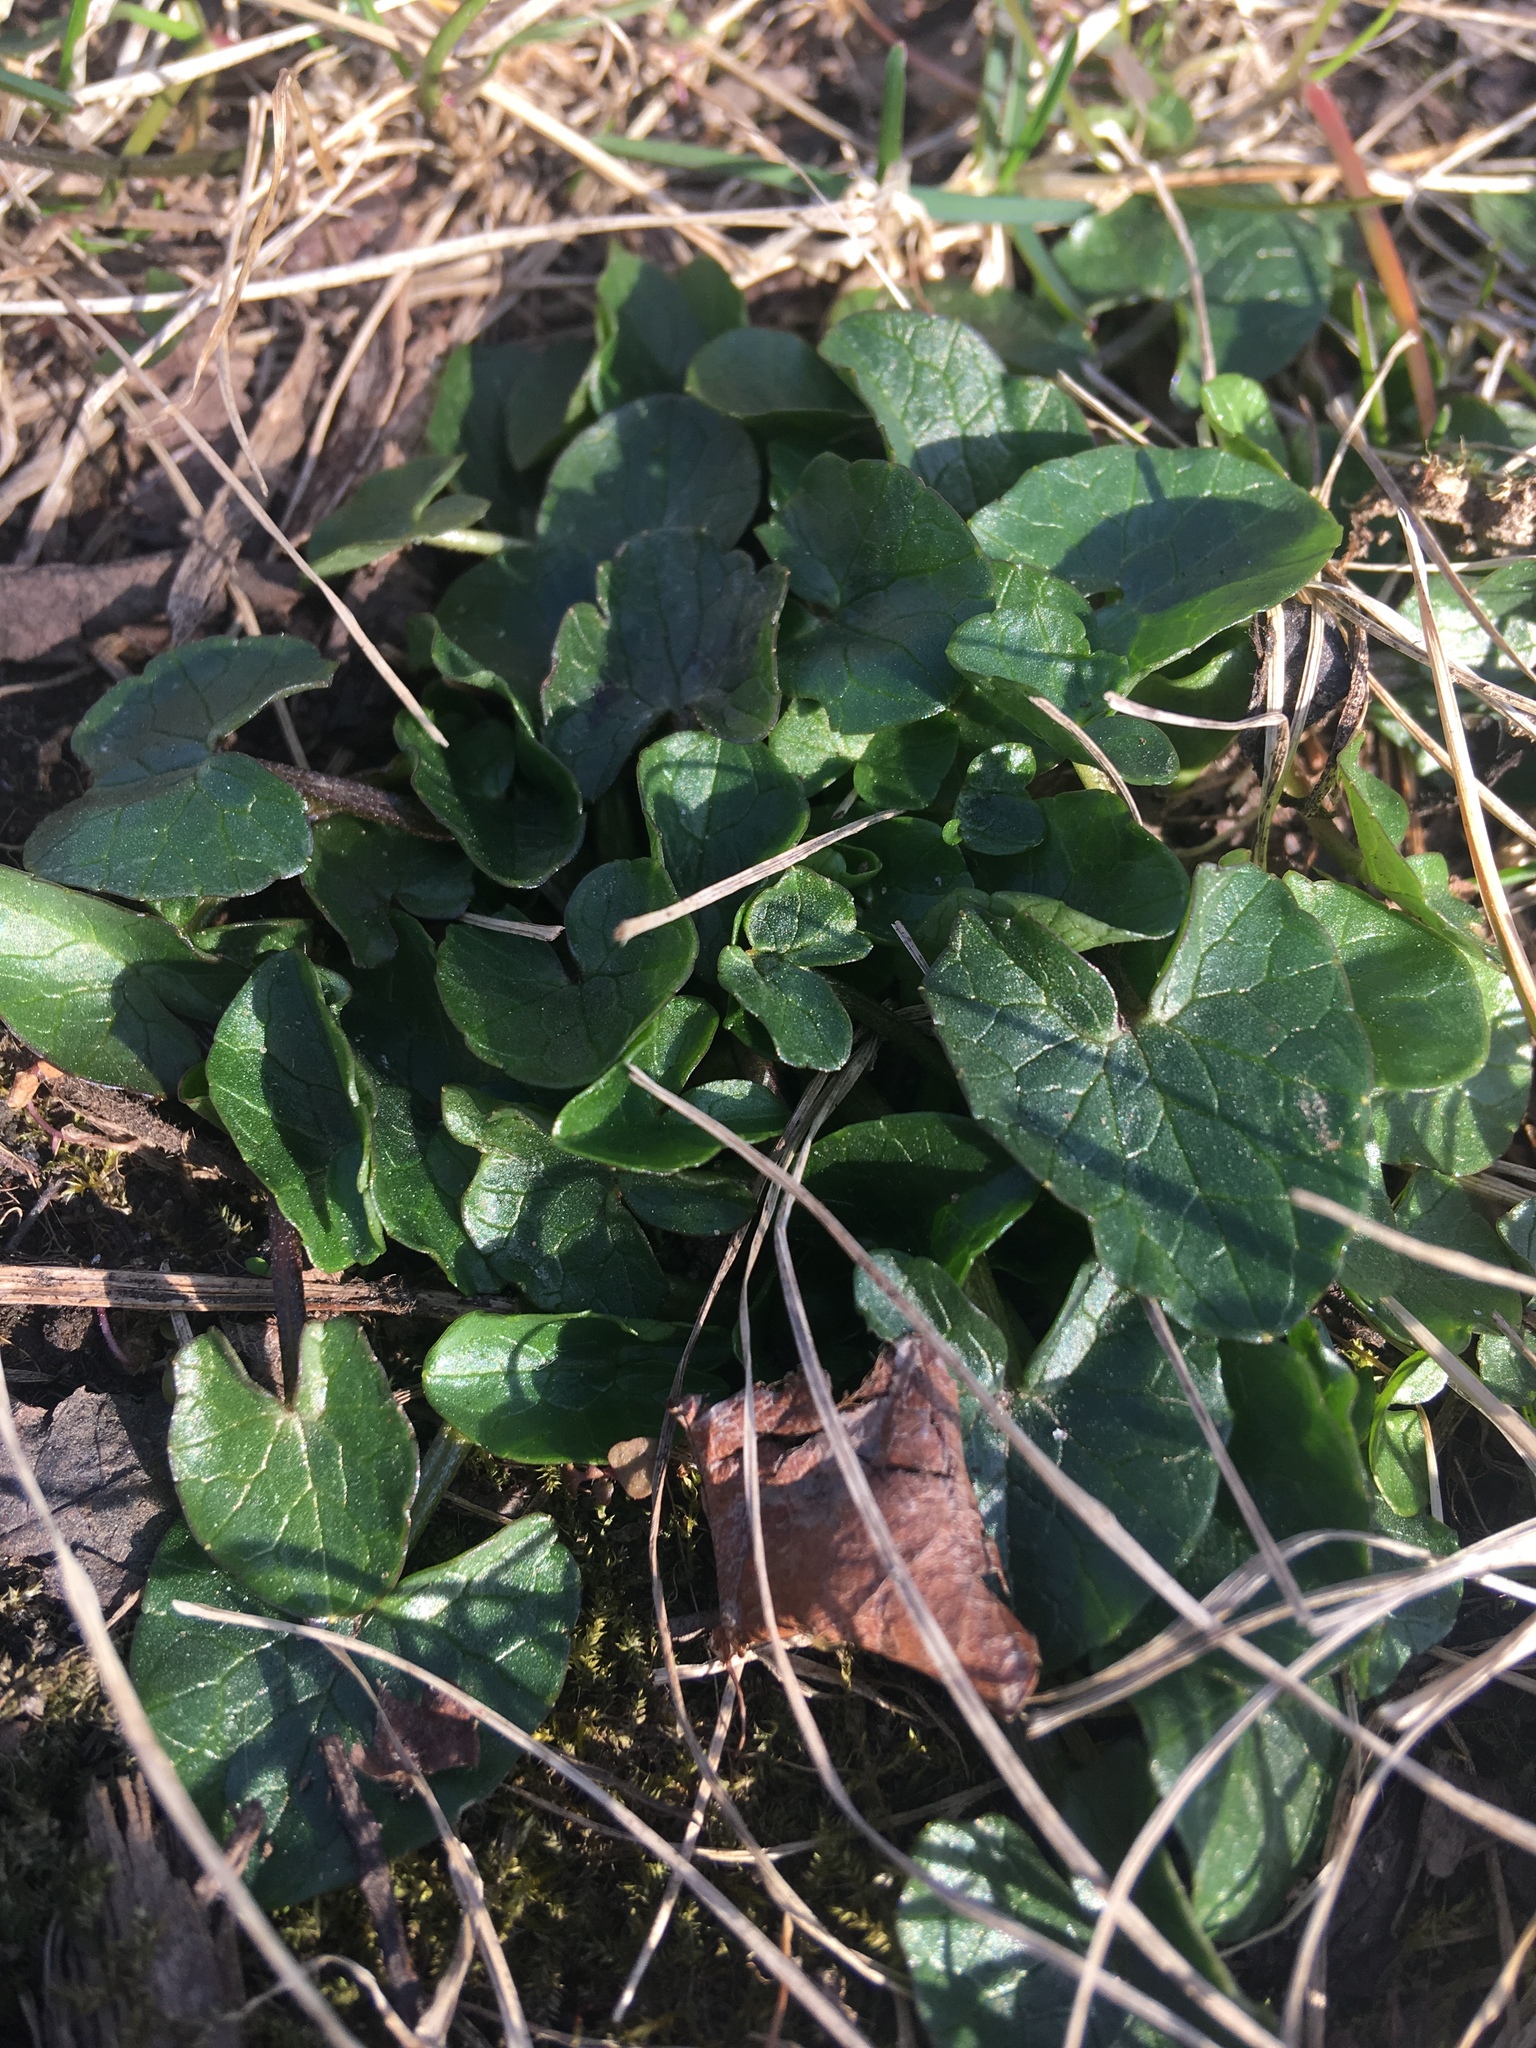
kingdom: Plantae
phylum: Tracheophyta
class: Magnoliopsida
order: Ranunculales
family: Ranunculaceae
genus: Ficaria
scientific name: Ficaria verna
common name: Lesser celandine
